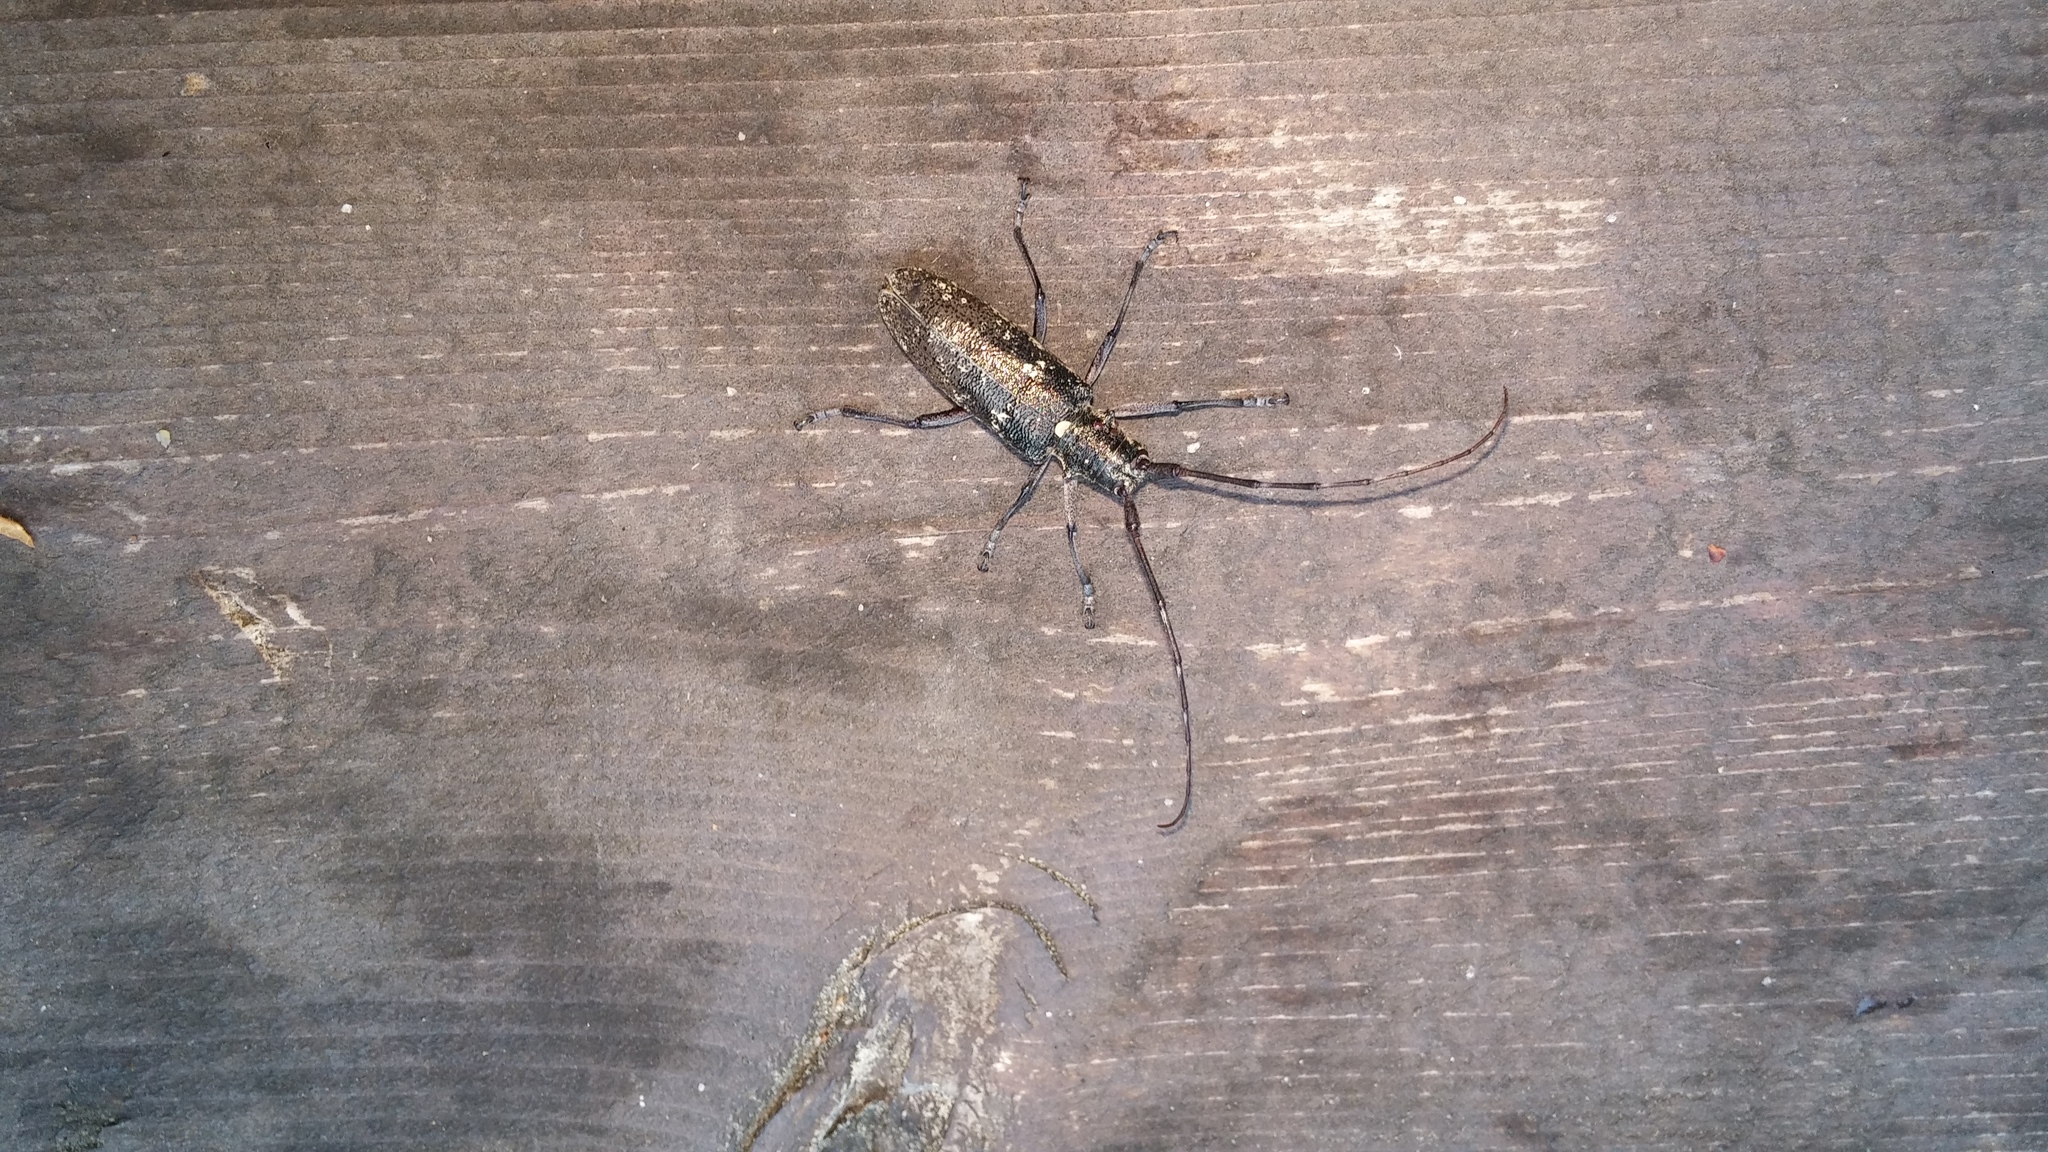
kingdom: Animalia
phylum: Arthropoda
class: Insecta
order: Coleoptera
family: Cerambycidae
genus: Monochamus
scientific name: Monochamus scutellatus
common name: White-spotted sawyer beetle
